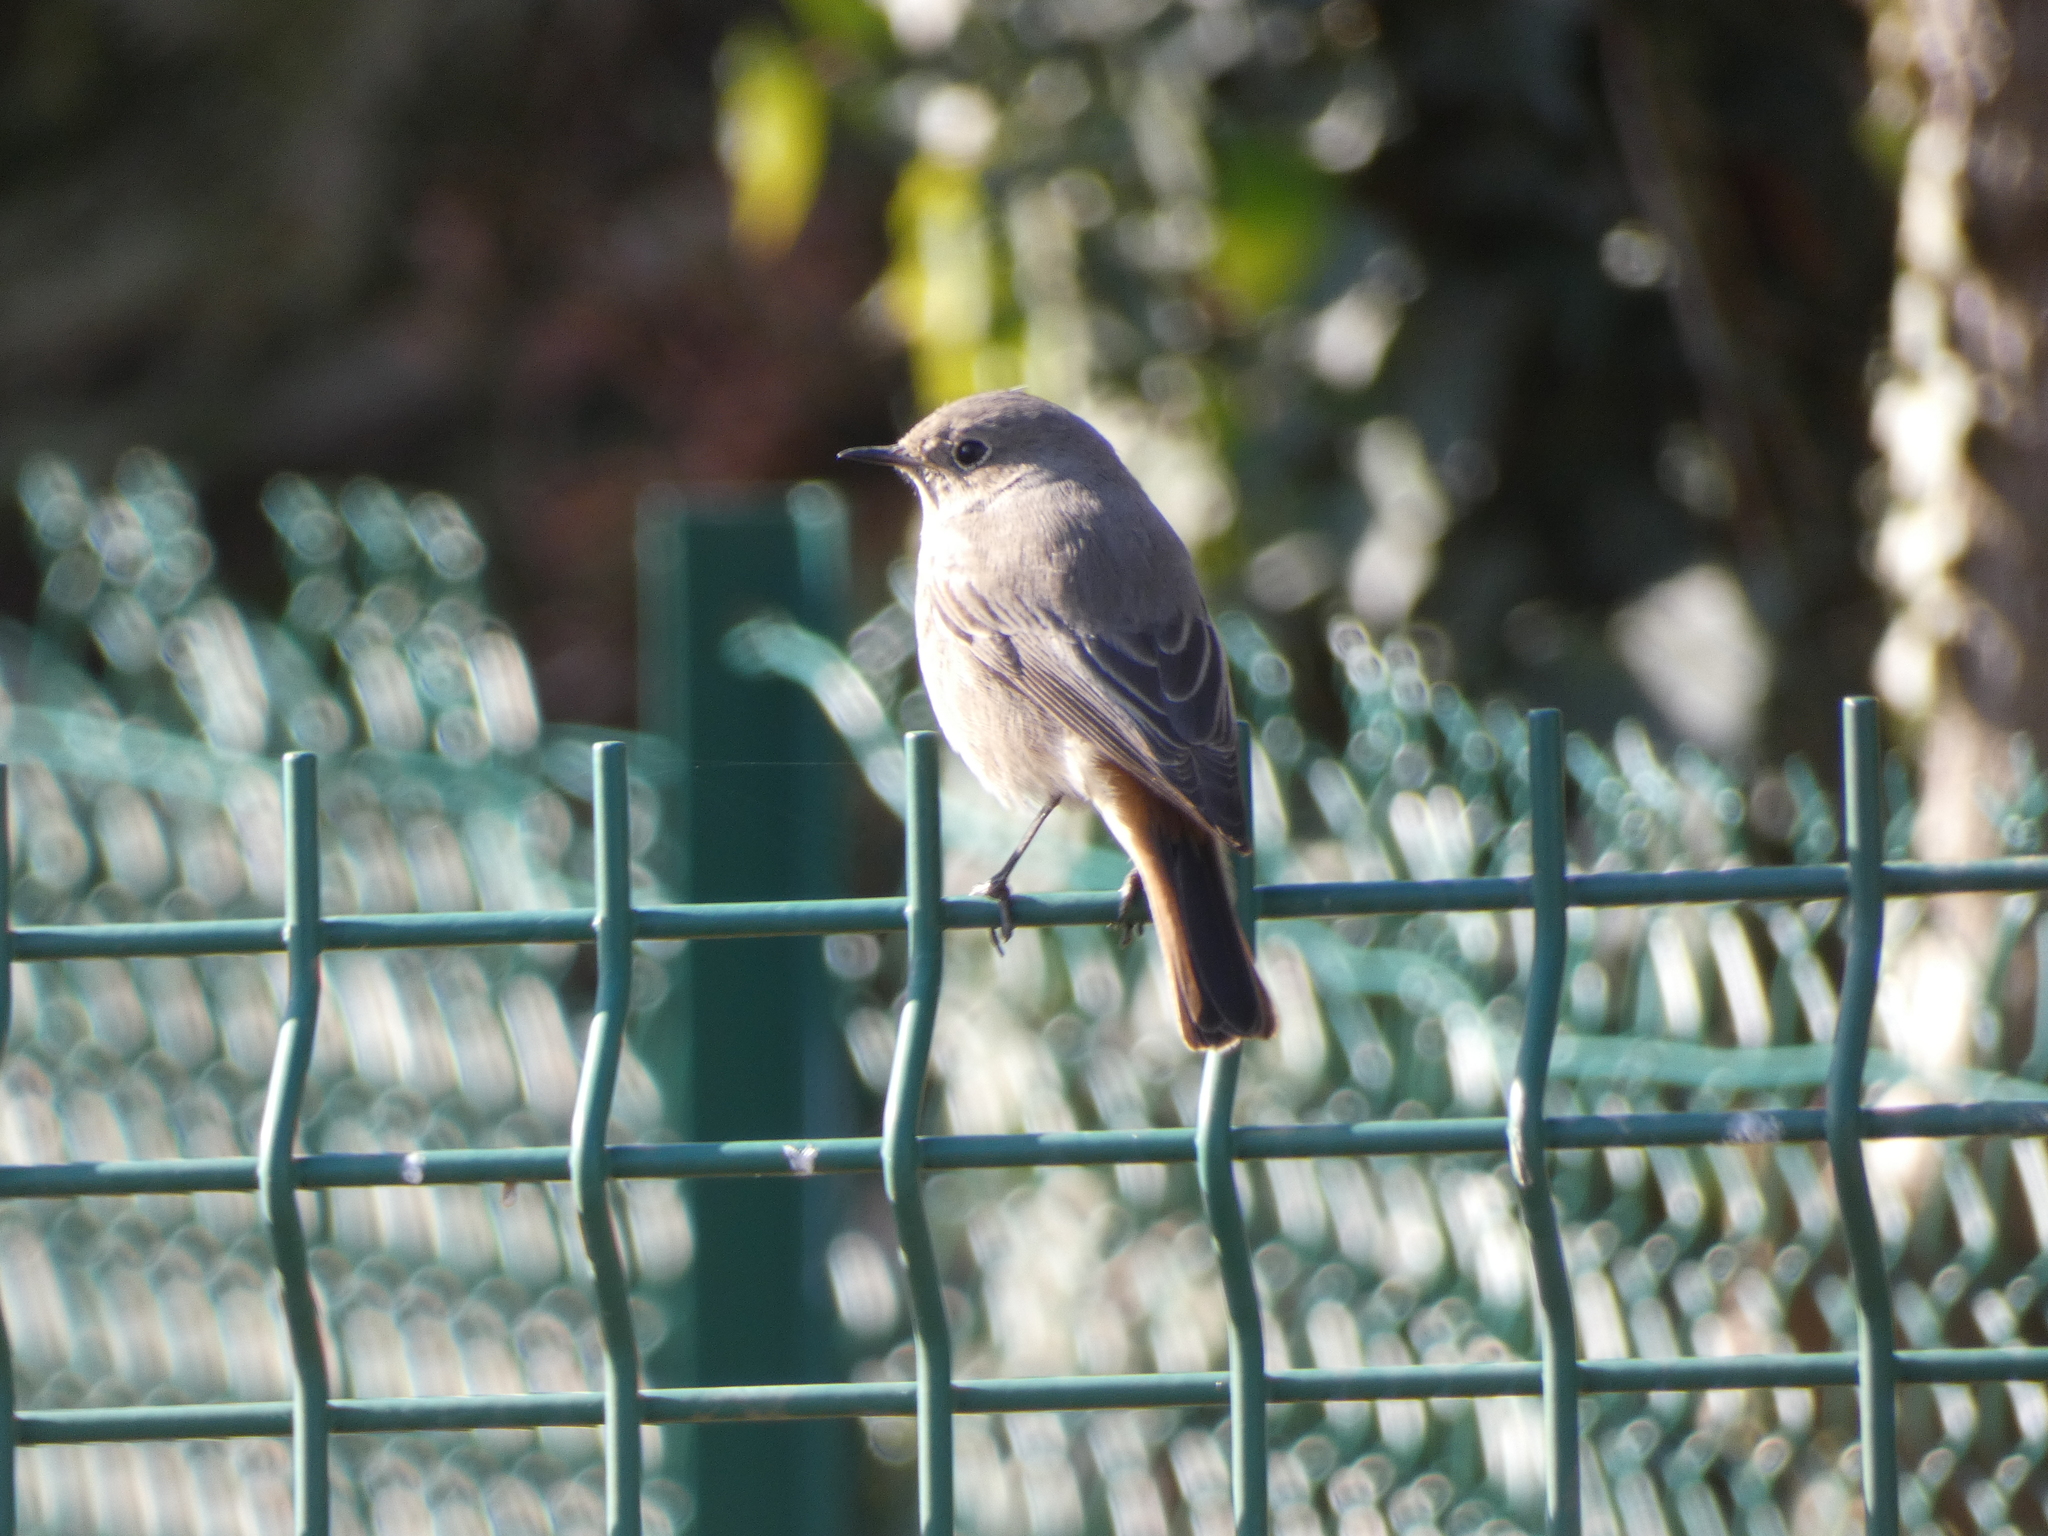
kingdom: Animalia
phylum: Chordata
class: Aves
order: Passeriformes
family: Muscicapidae
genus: Phoenicurus
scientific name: Phoenicurus ochruros
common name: Black redstart
